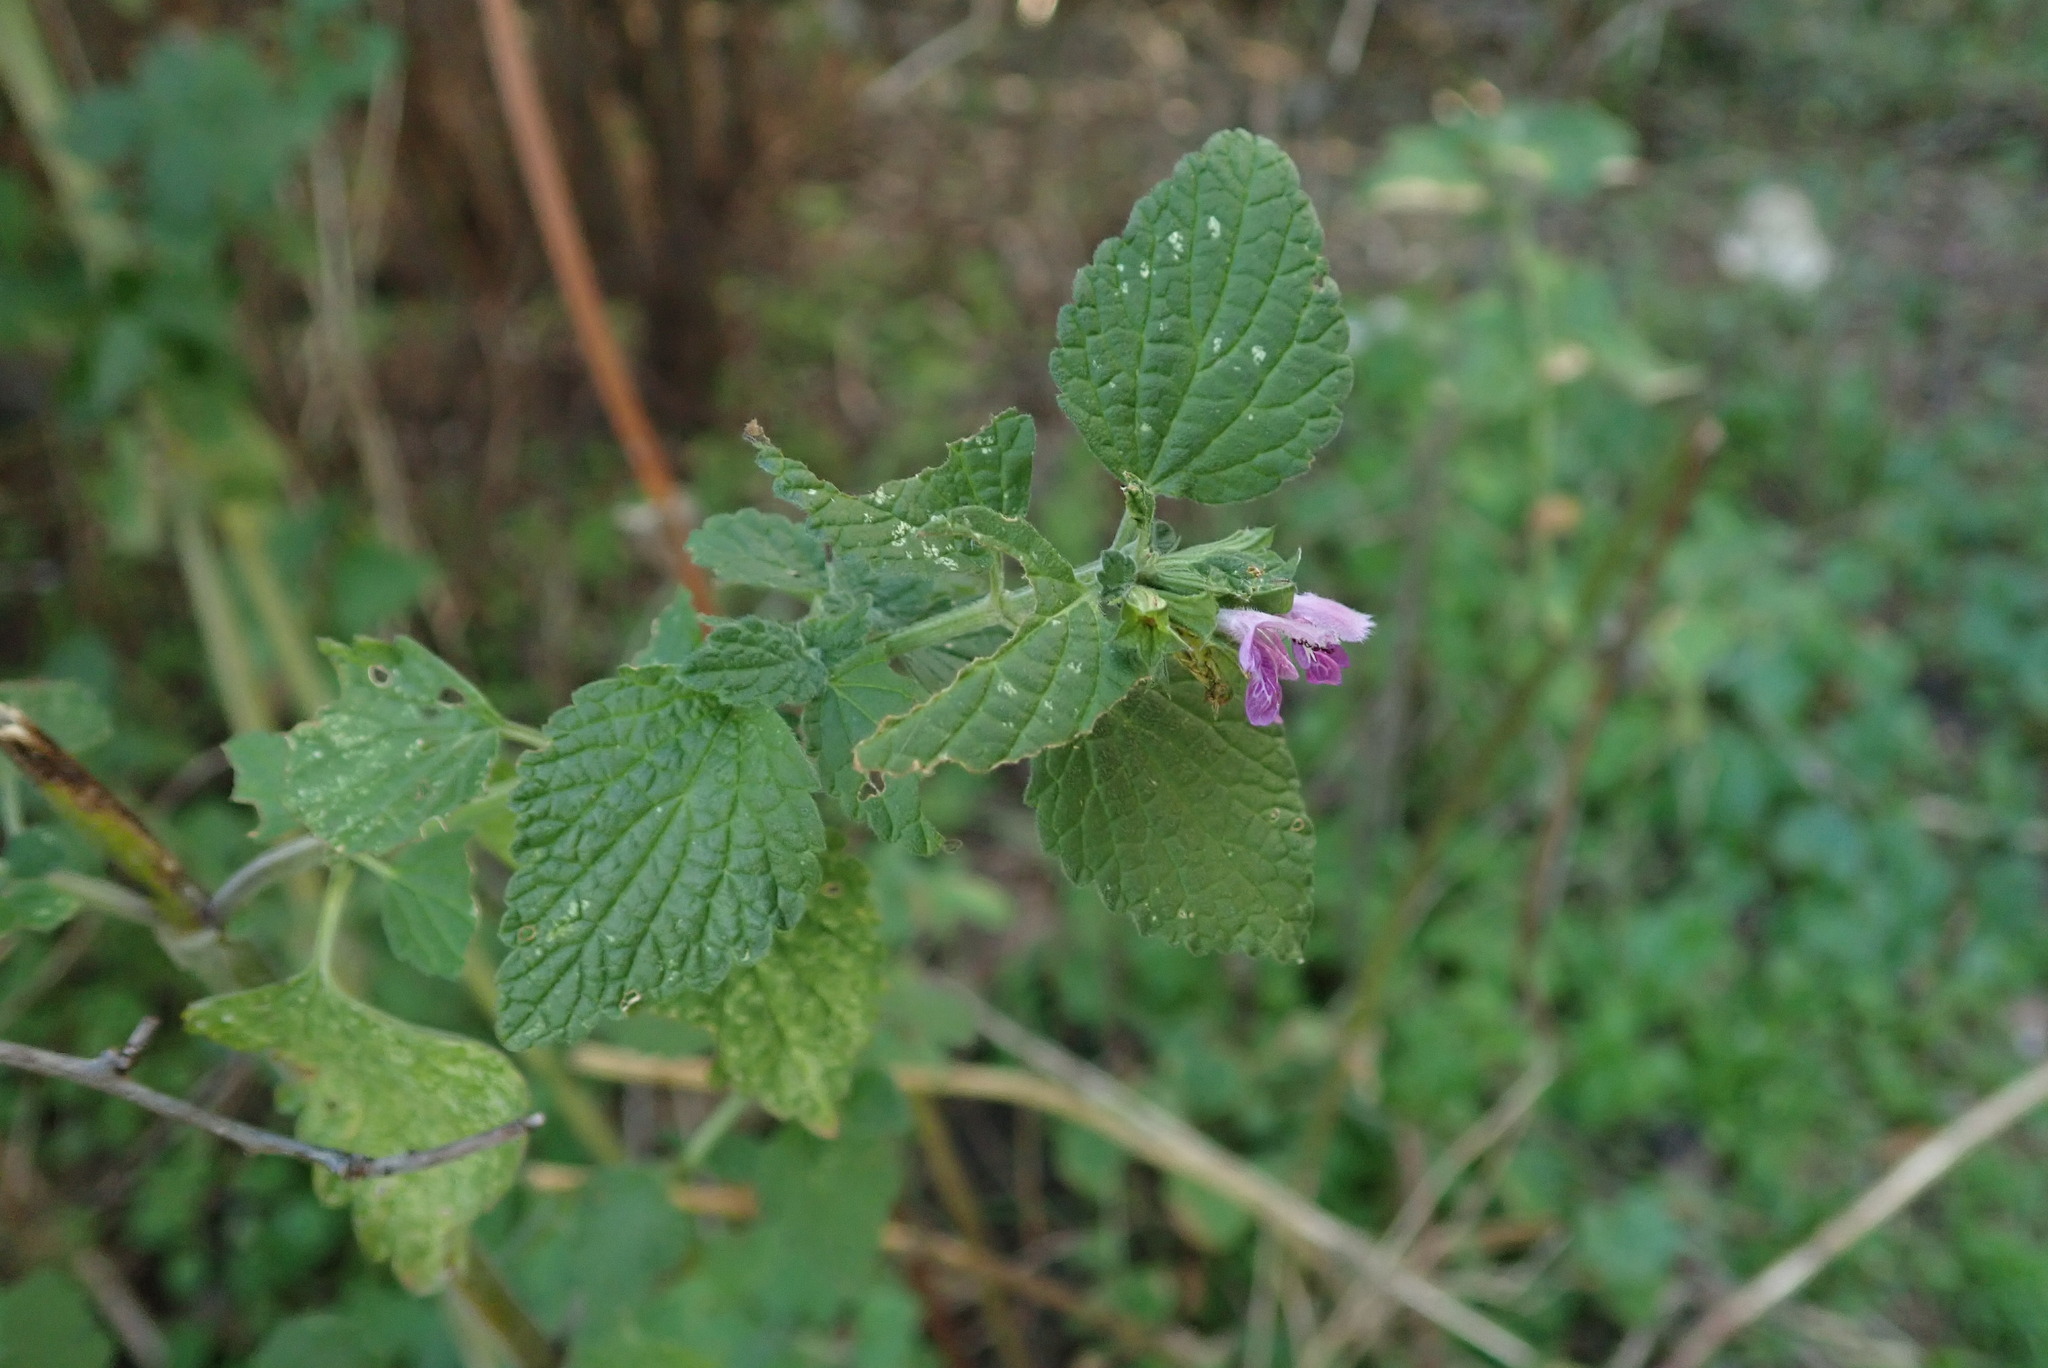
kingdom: Plantae
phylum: Tracheophyta
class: Magnoliopsida
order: Lamiales
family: Lamiaceae
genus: Ballota
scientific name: Ballota nigra
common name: Black horehound
